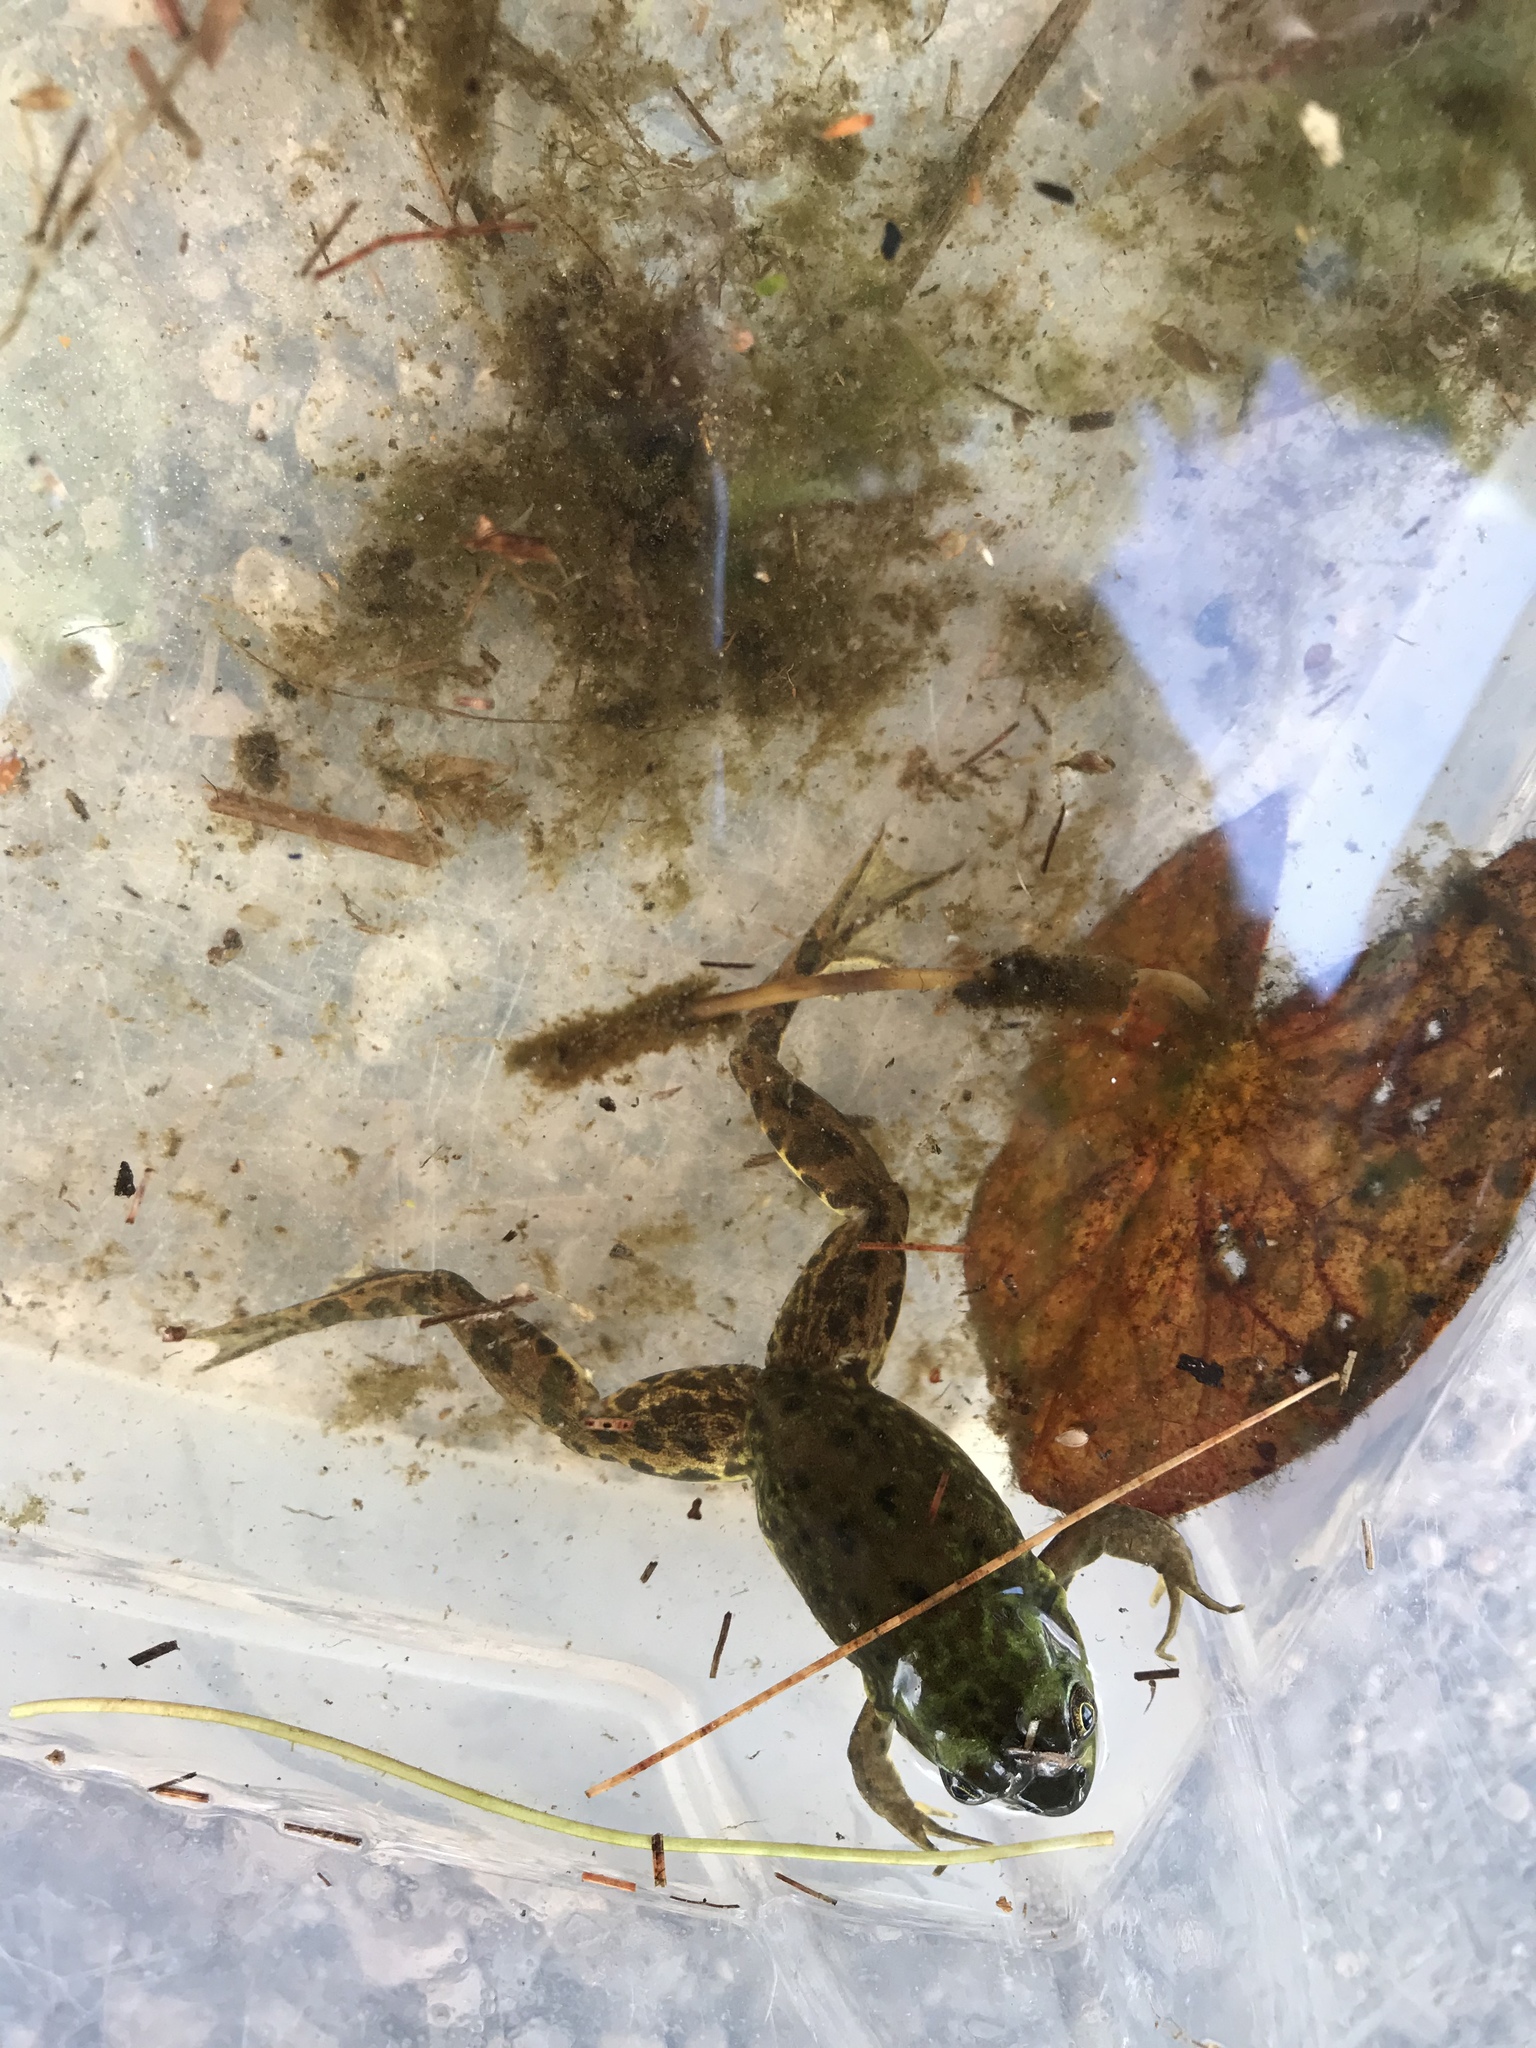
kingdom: Animalia
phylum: Chordata
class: Amphibia
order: Anura
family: Ranidae
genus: Lithobates
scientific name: Lithobates septentrionalis
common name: Mink frog
